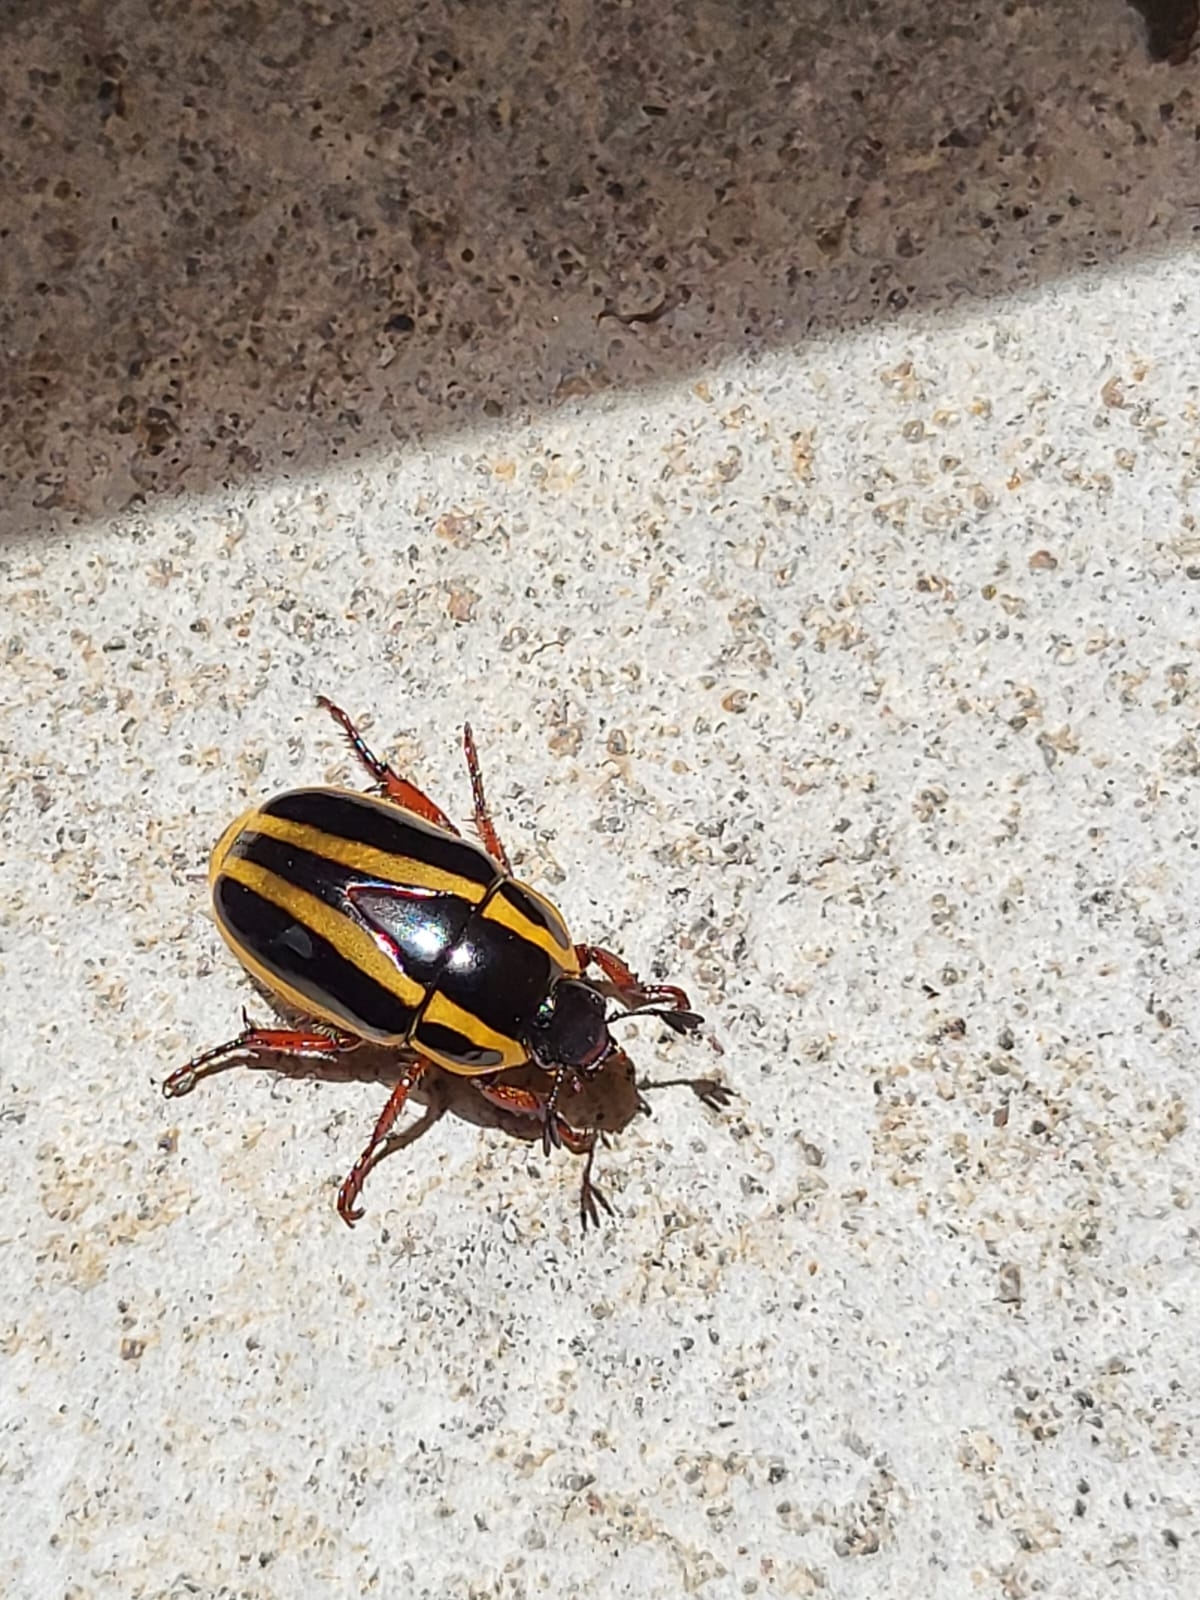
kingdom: Animalia
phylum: Arthropoda
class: Insecta
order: Coleoptera
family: Scarabaeidae
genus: Macraspis
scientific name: Macraspis jamesi
